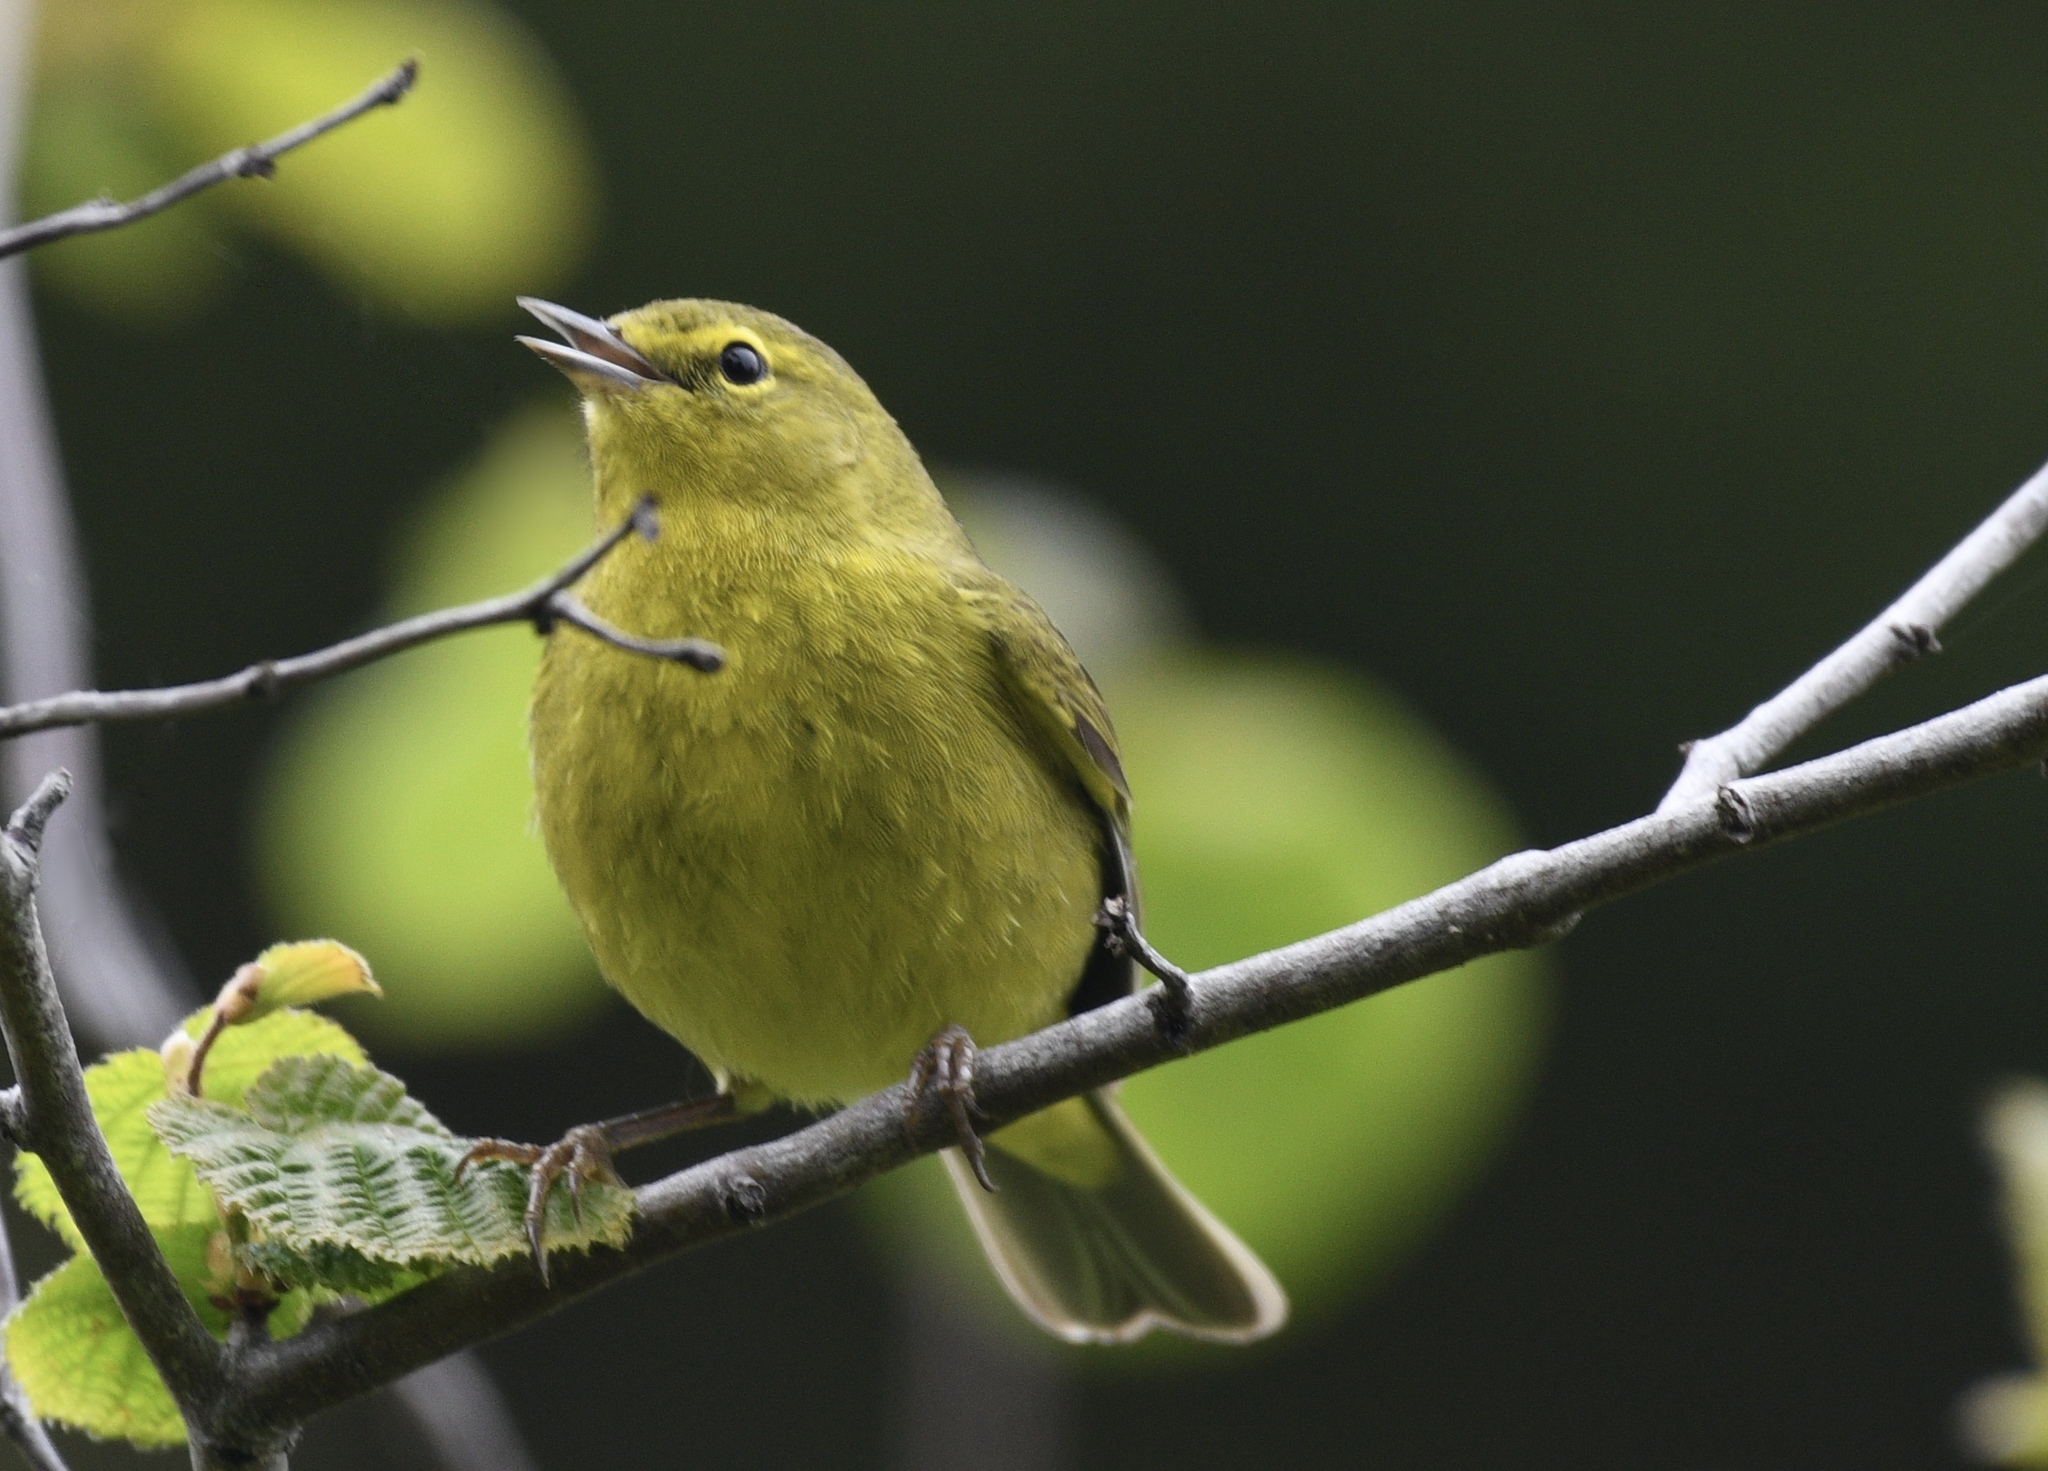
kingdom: Animalia
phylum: Chordata
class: Aves
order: Passeriformes
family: Parulidae
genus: Leiothlypis
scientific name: Leiothlypis celata
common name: Orange-crowned warbler
